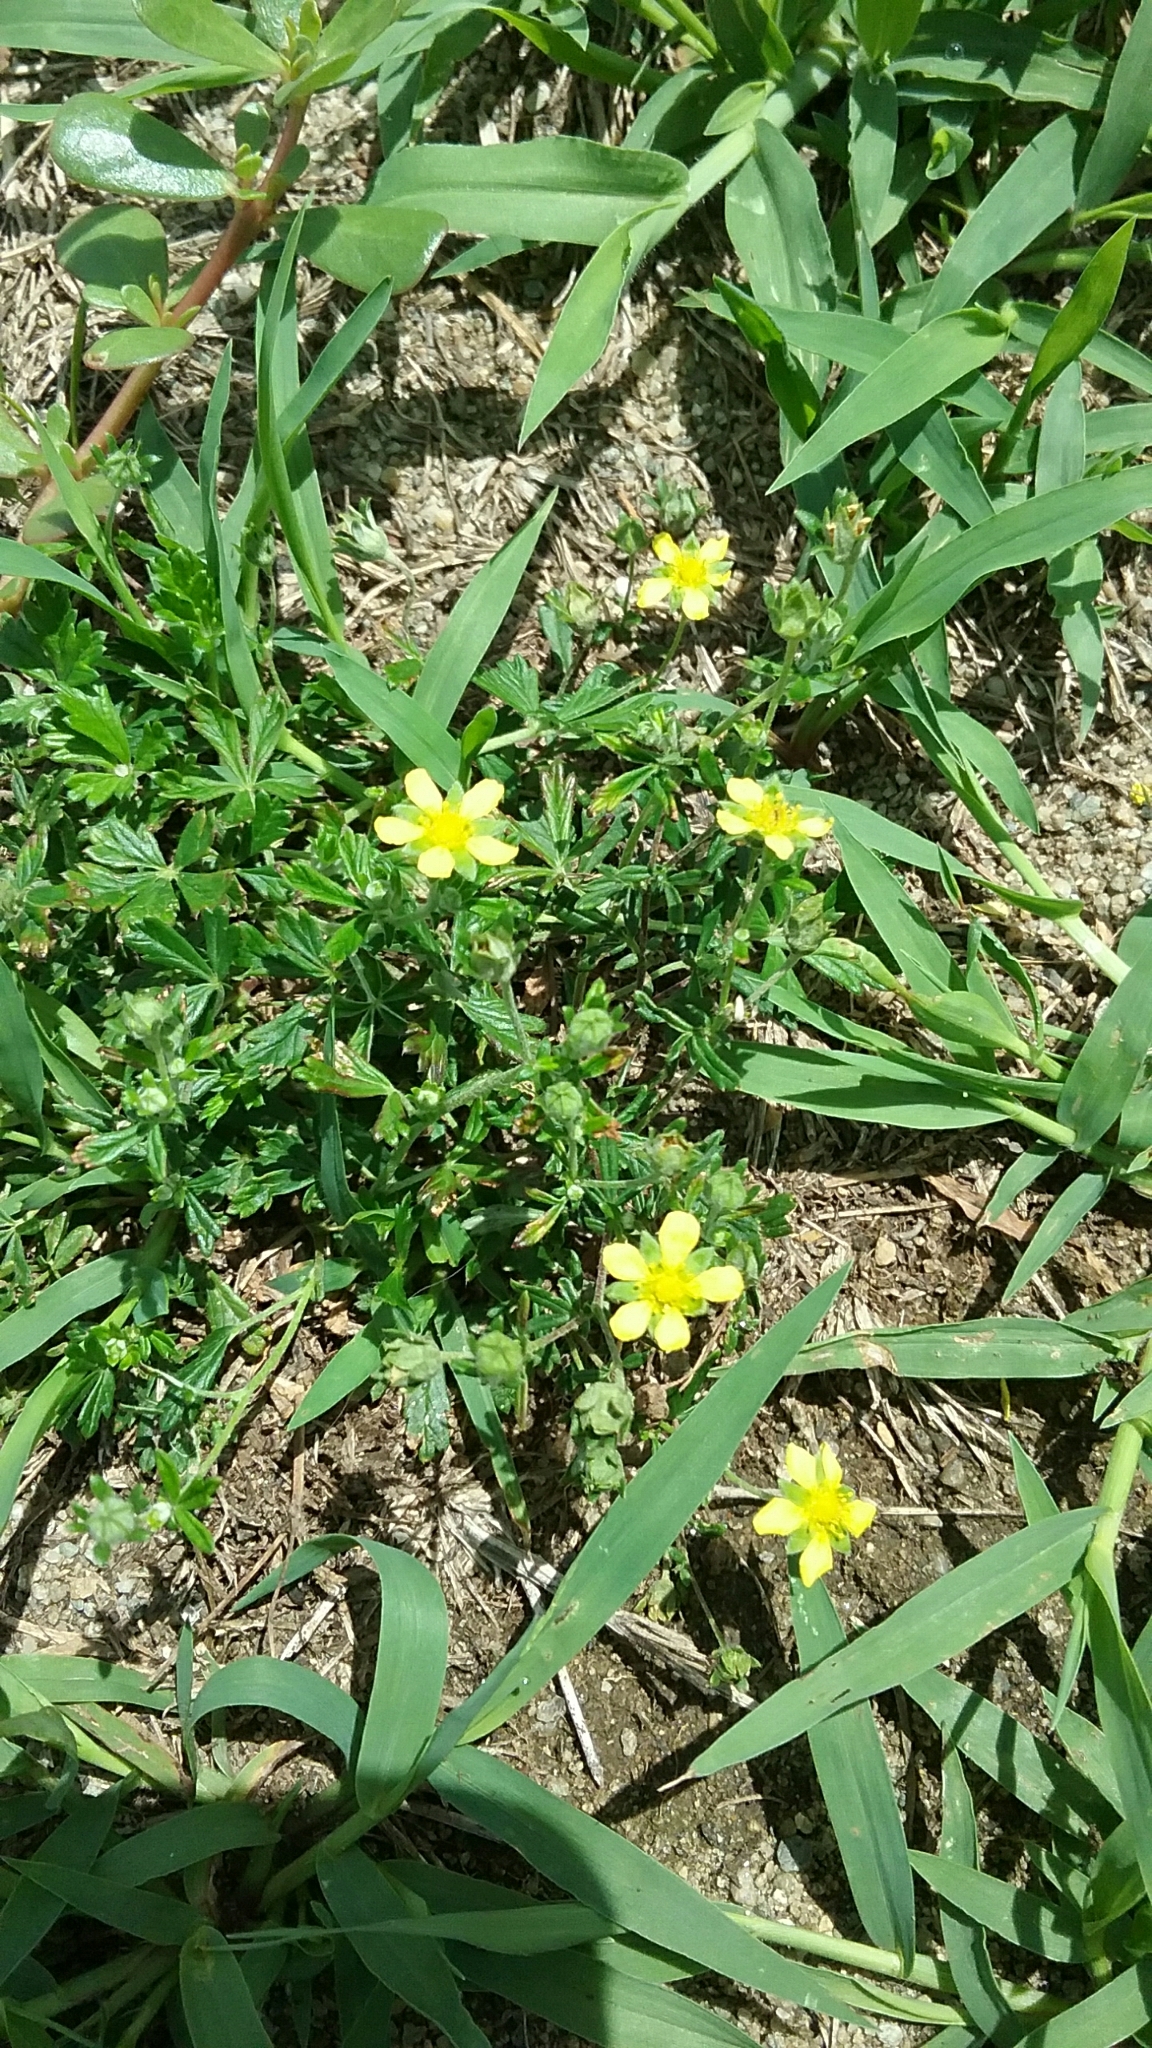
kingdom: Plantae
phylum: Tracheophyta
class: Magnoliopsida
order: Rosales
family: Rosaceae
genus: Potentilla
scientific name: Potentilla argentea
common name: Hoary cinquefoil
